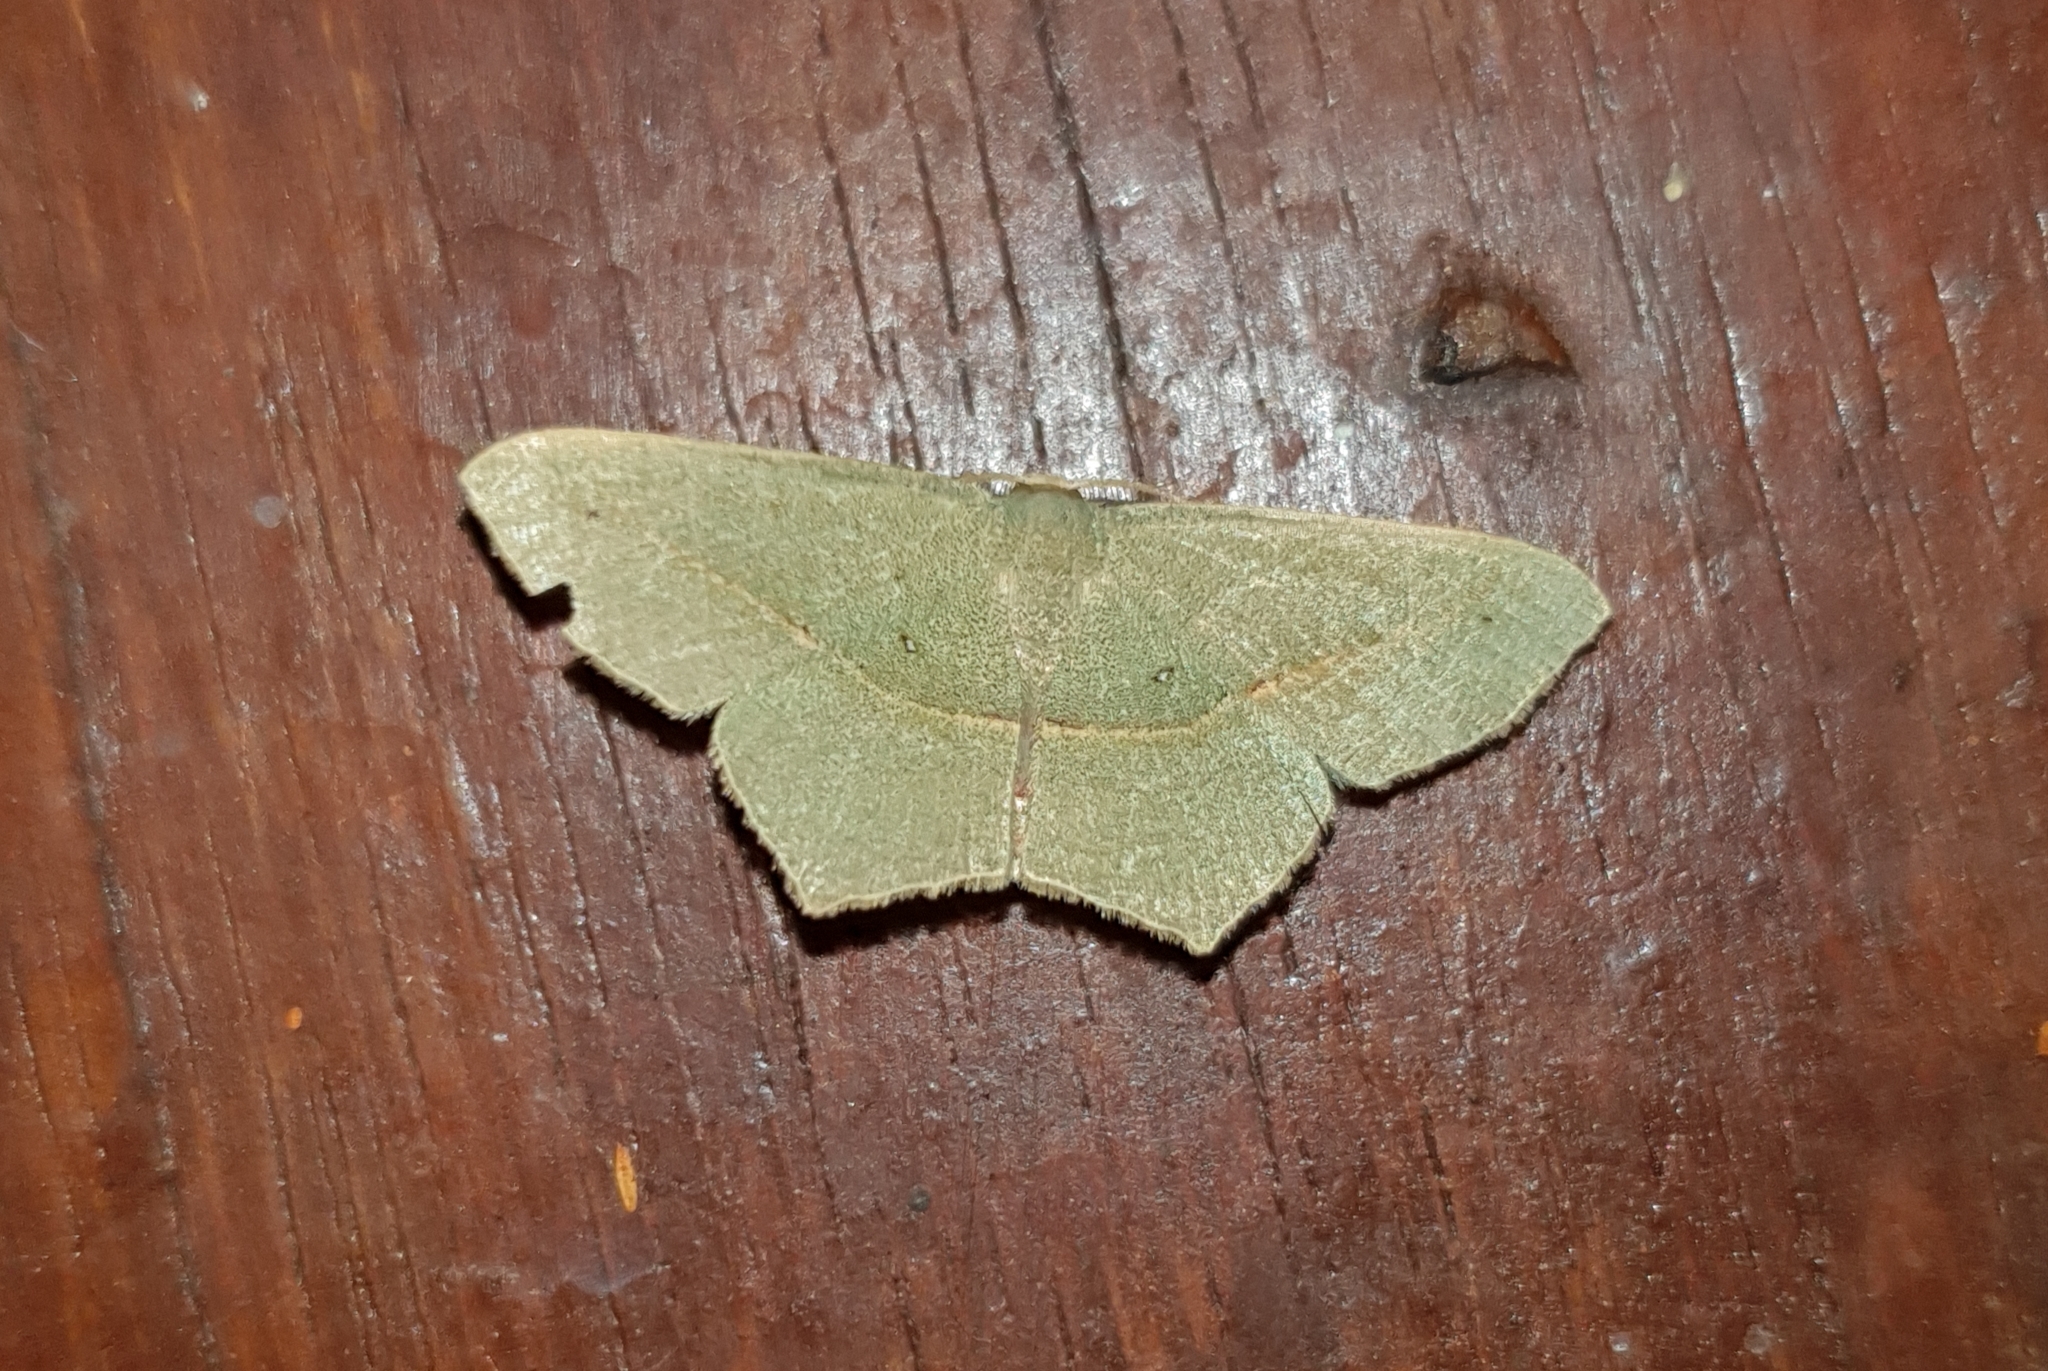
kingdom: Animalia
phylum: Arthropoda
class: Insecta
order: Lepidoptera
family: Geometridae
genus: Traminda
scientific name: Traminda mundissima
